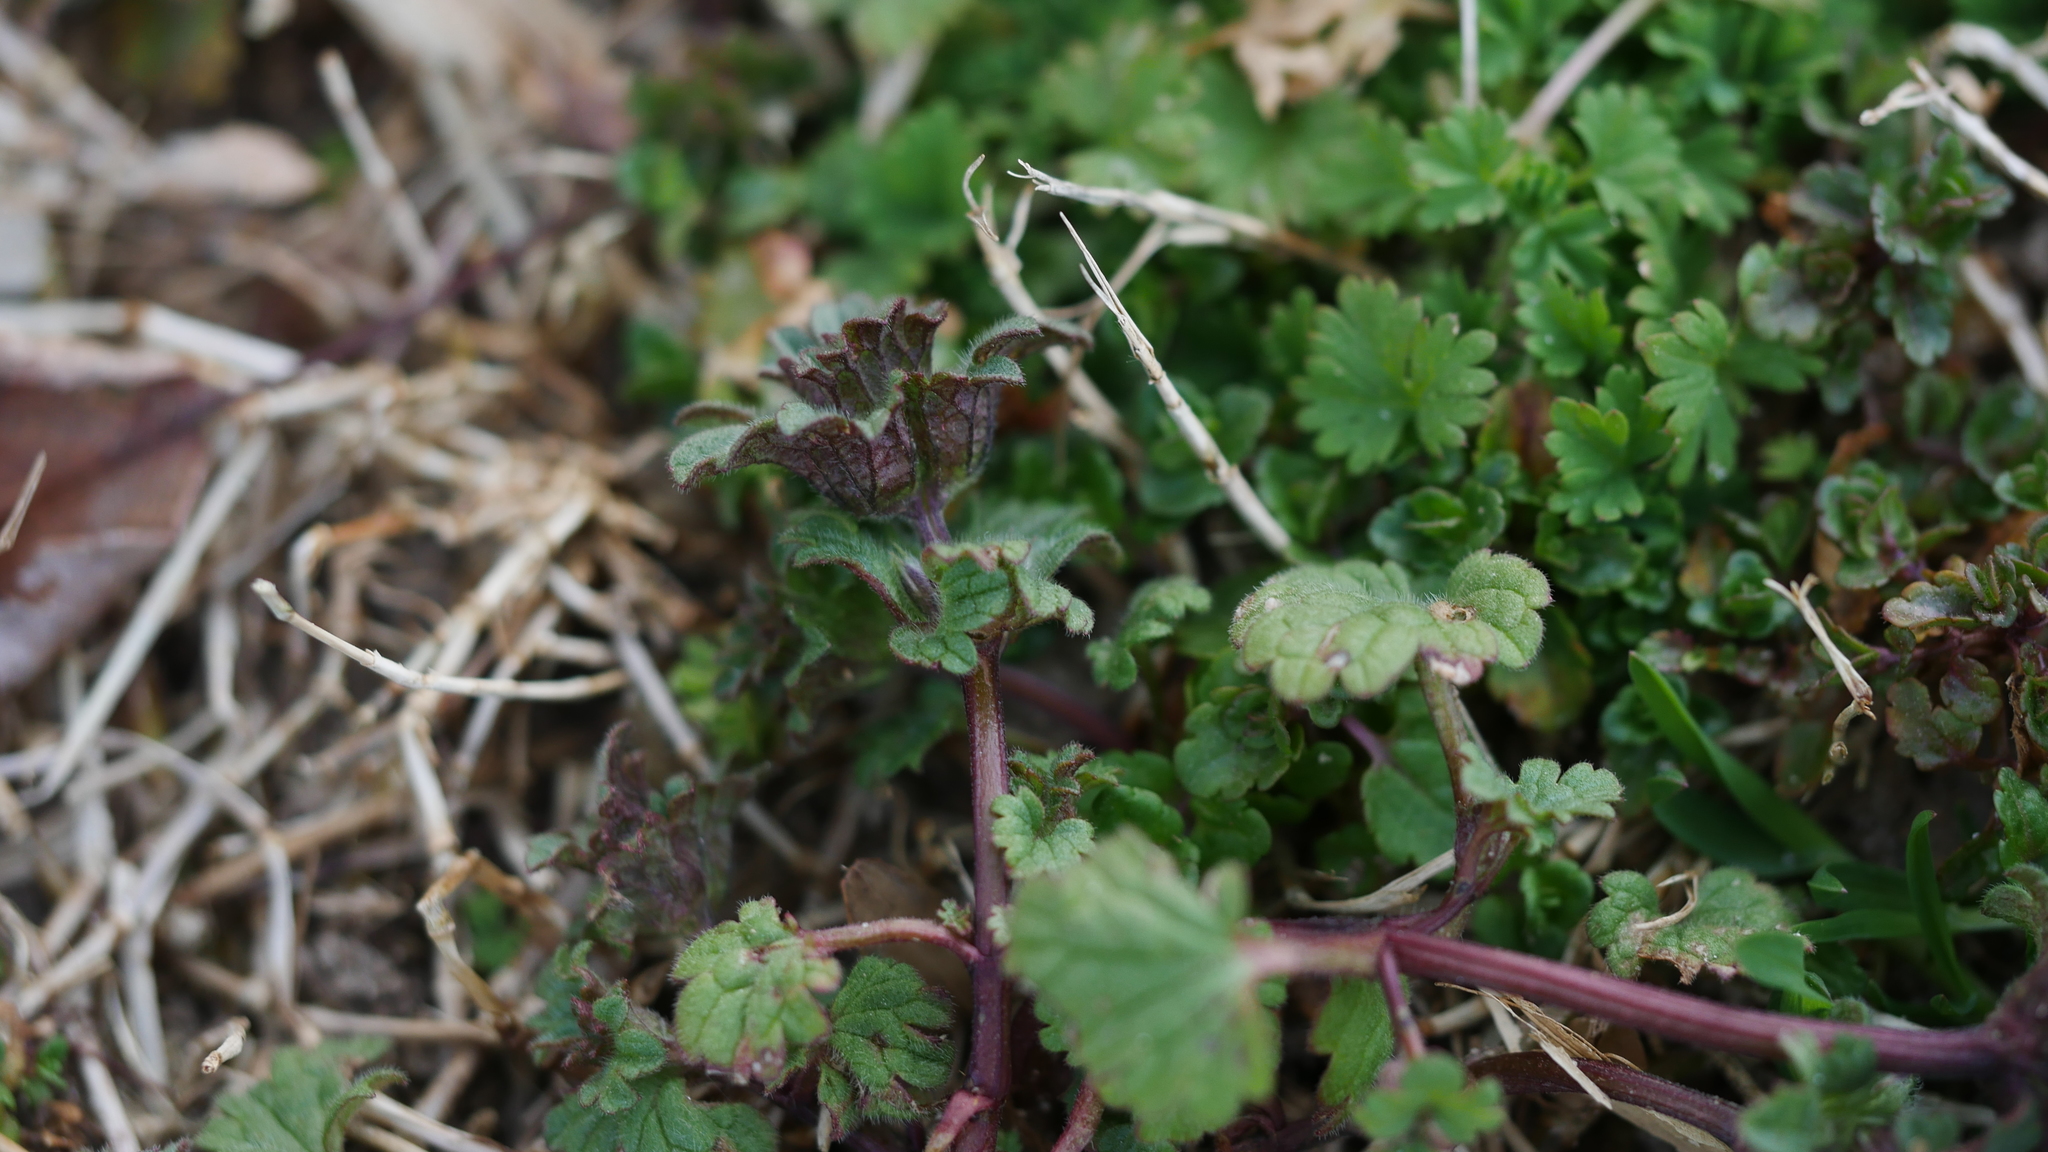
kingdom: Plantae
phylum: Tracheophyta
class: Magnoliopsida
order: Lamiales
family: Lamiaceae
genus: Lamium
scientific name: Lamium amplexicaule
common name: Henbit dead-nettle
